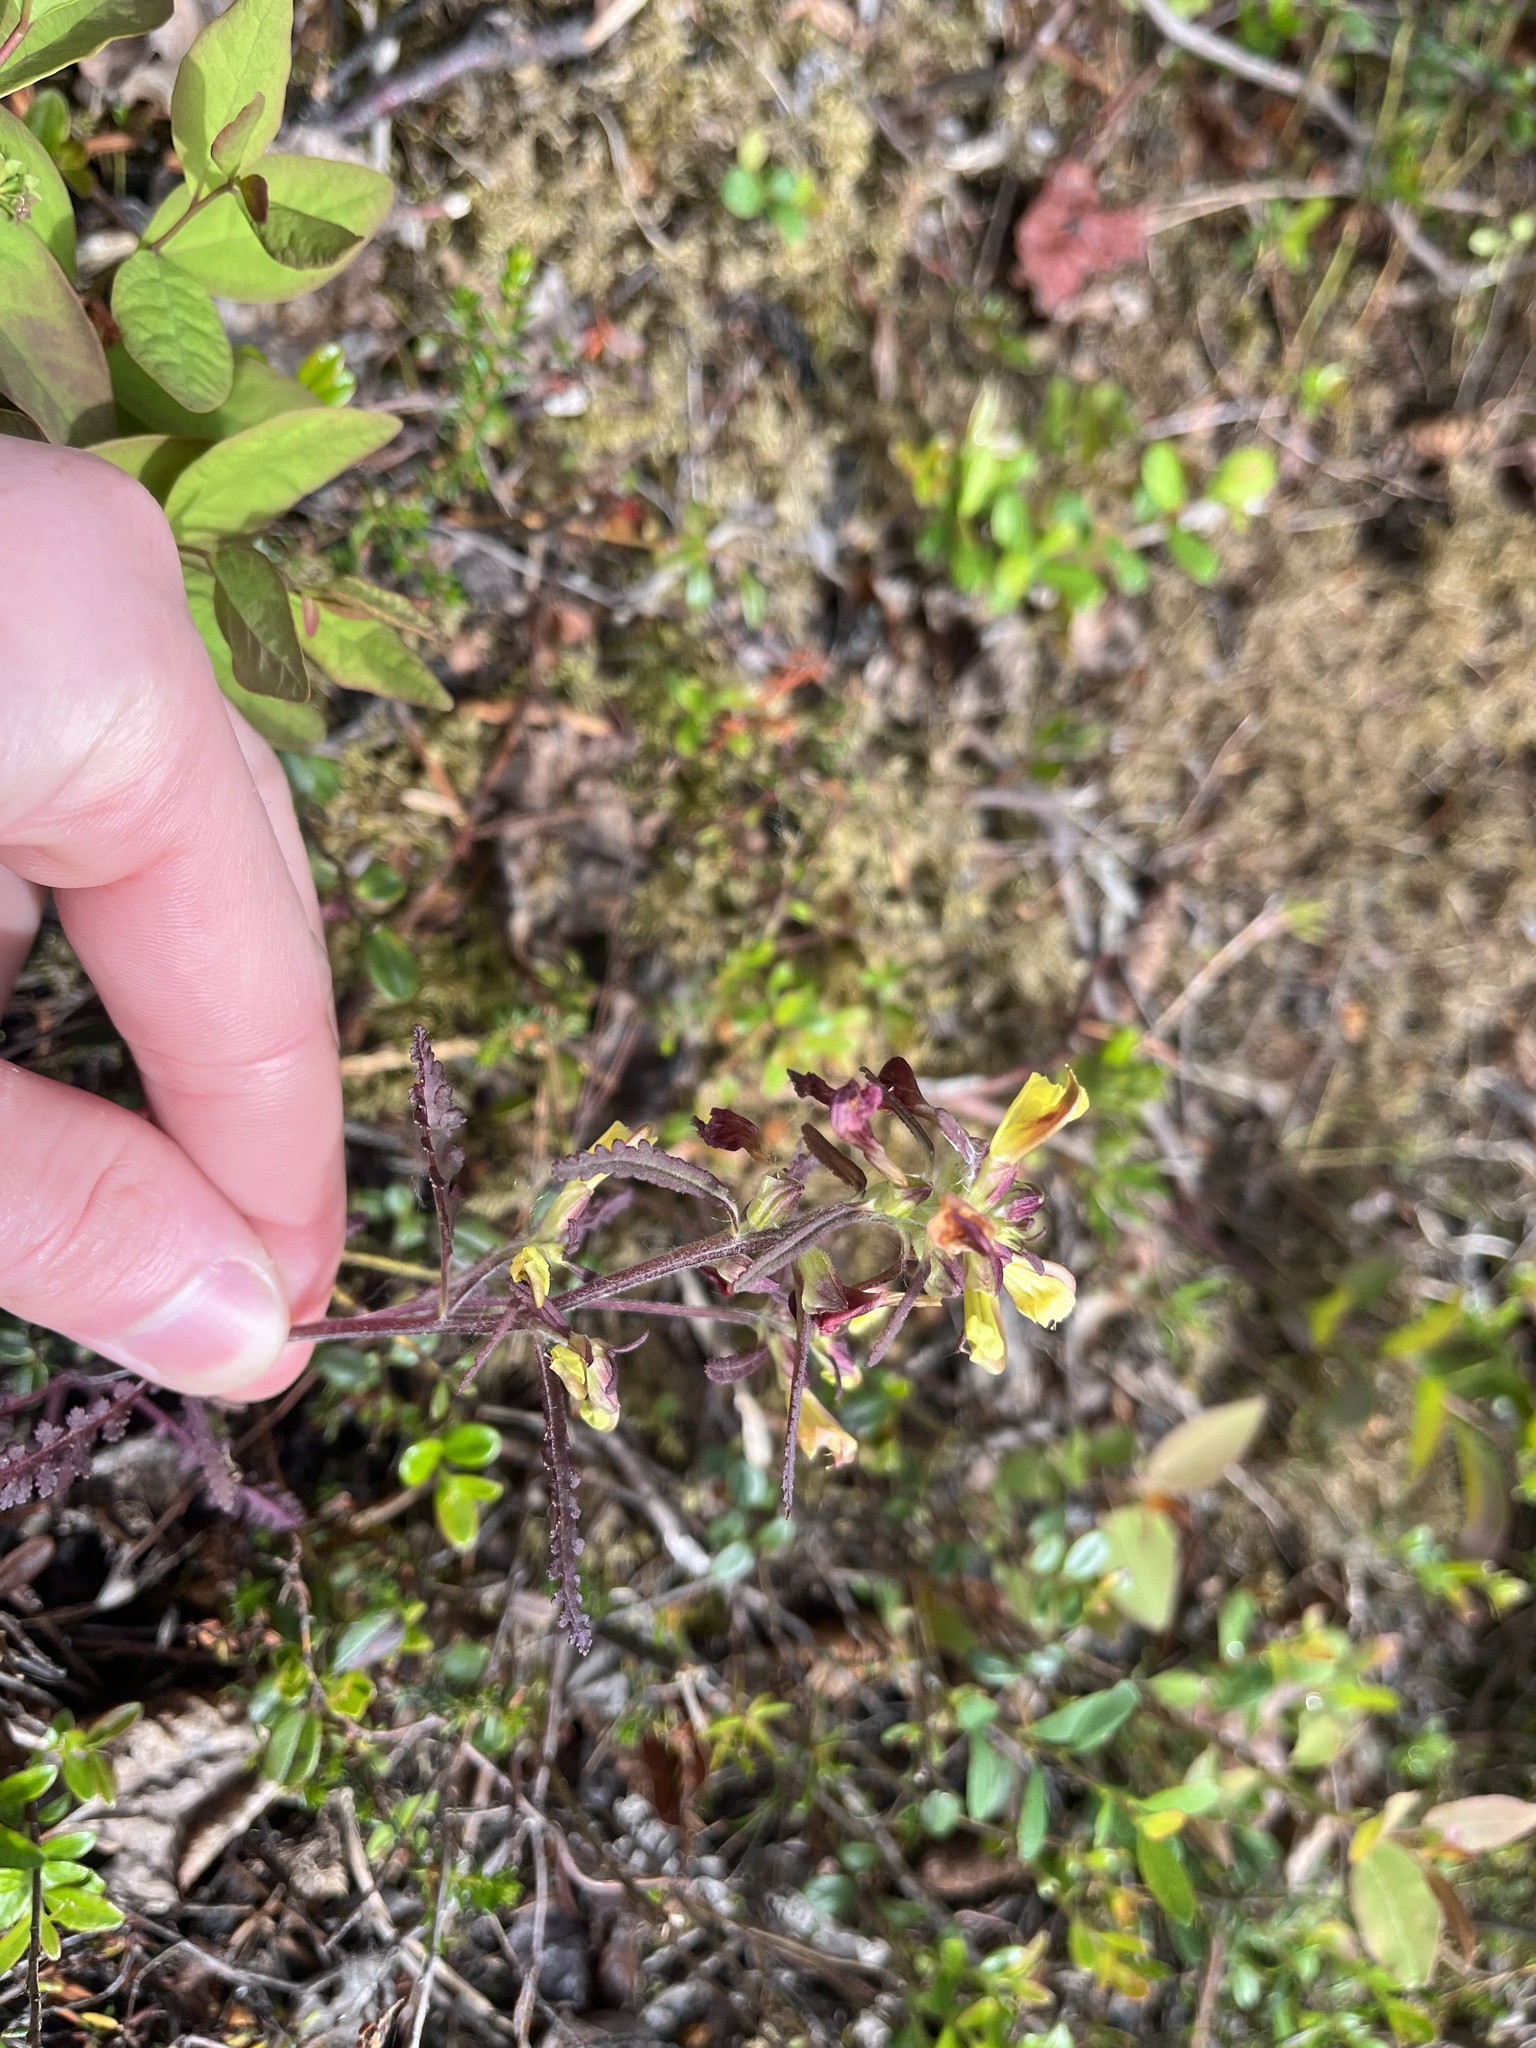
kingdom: Plantae
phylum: Tracheophyta
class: Magnoliopsida
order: Lamiales
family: Orobanchaceae
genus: Pedicularis
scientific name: Pedicularis labradorica
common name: Labrador lousewort
